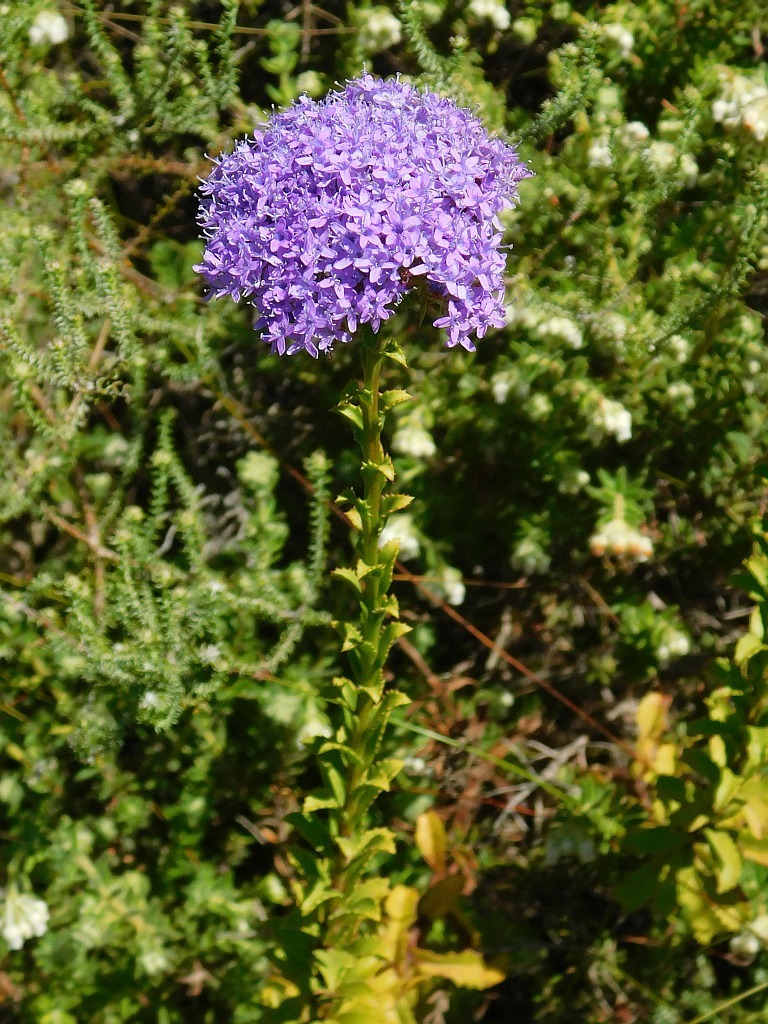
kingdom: Plantae
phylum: Tracheophyta
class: Magnoliopsida
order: Lamiales
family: Scrophulariaceae
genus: Pseudoselago
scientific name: Pseudoselago serrata
